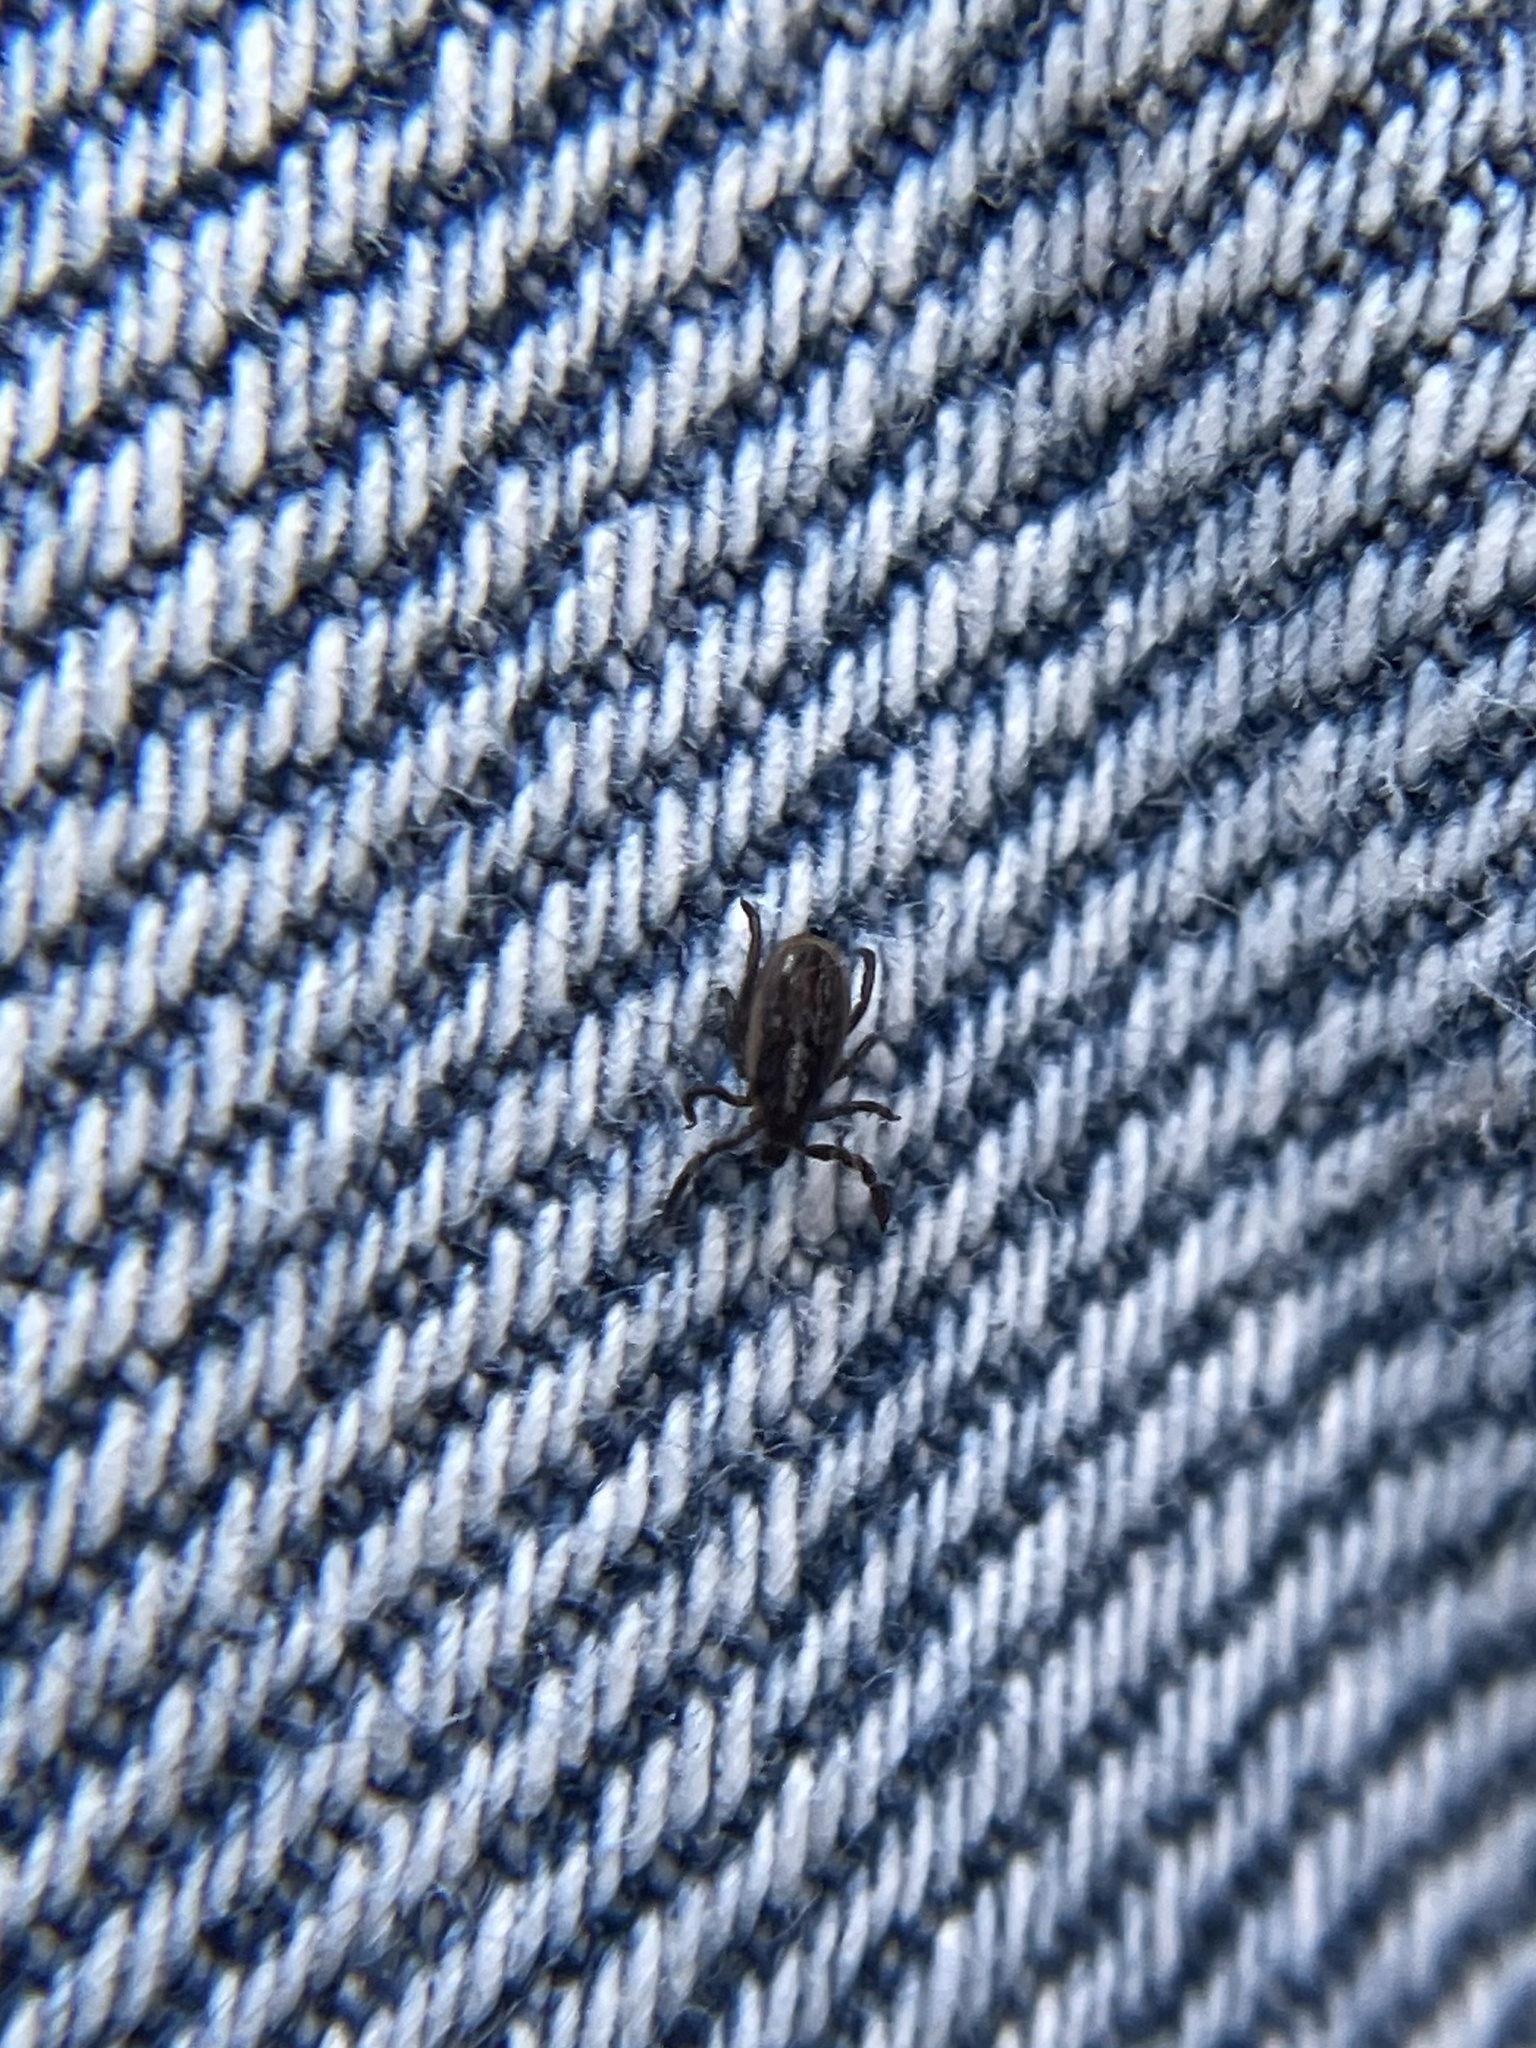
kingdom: Animalia
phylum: Arthropoda
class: Arachnida
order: Ixodida
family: Ixodidae
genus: Ixodes
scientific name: Ixodes pacificus
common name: California black-legged tick
